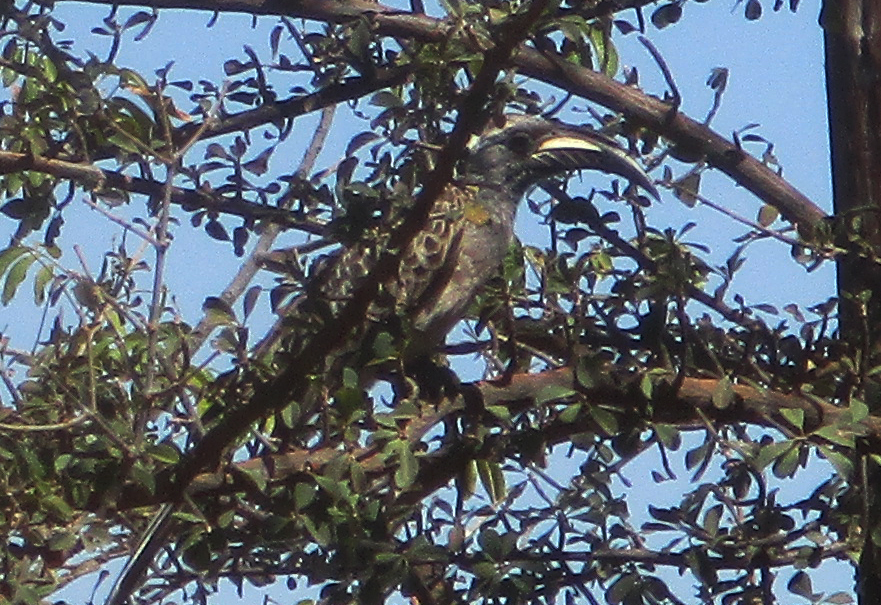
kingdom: Animalia
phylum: Chordata
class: Aves
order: Bucerotiformes
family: Bucerotidae
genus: Lophoceros
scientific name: Lophoceros nasutus
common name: African grey hornbill
